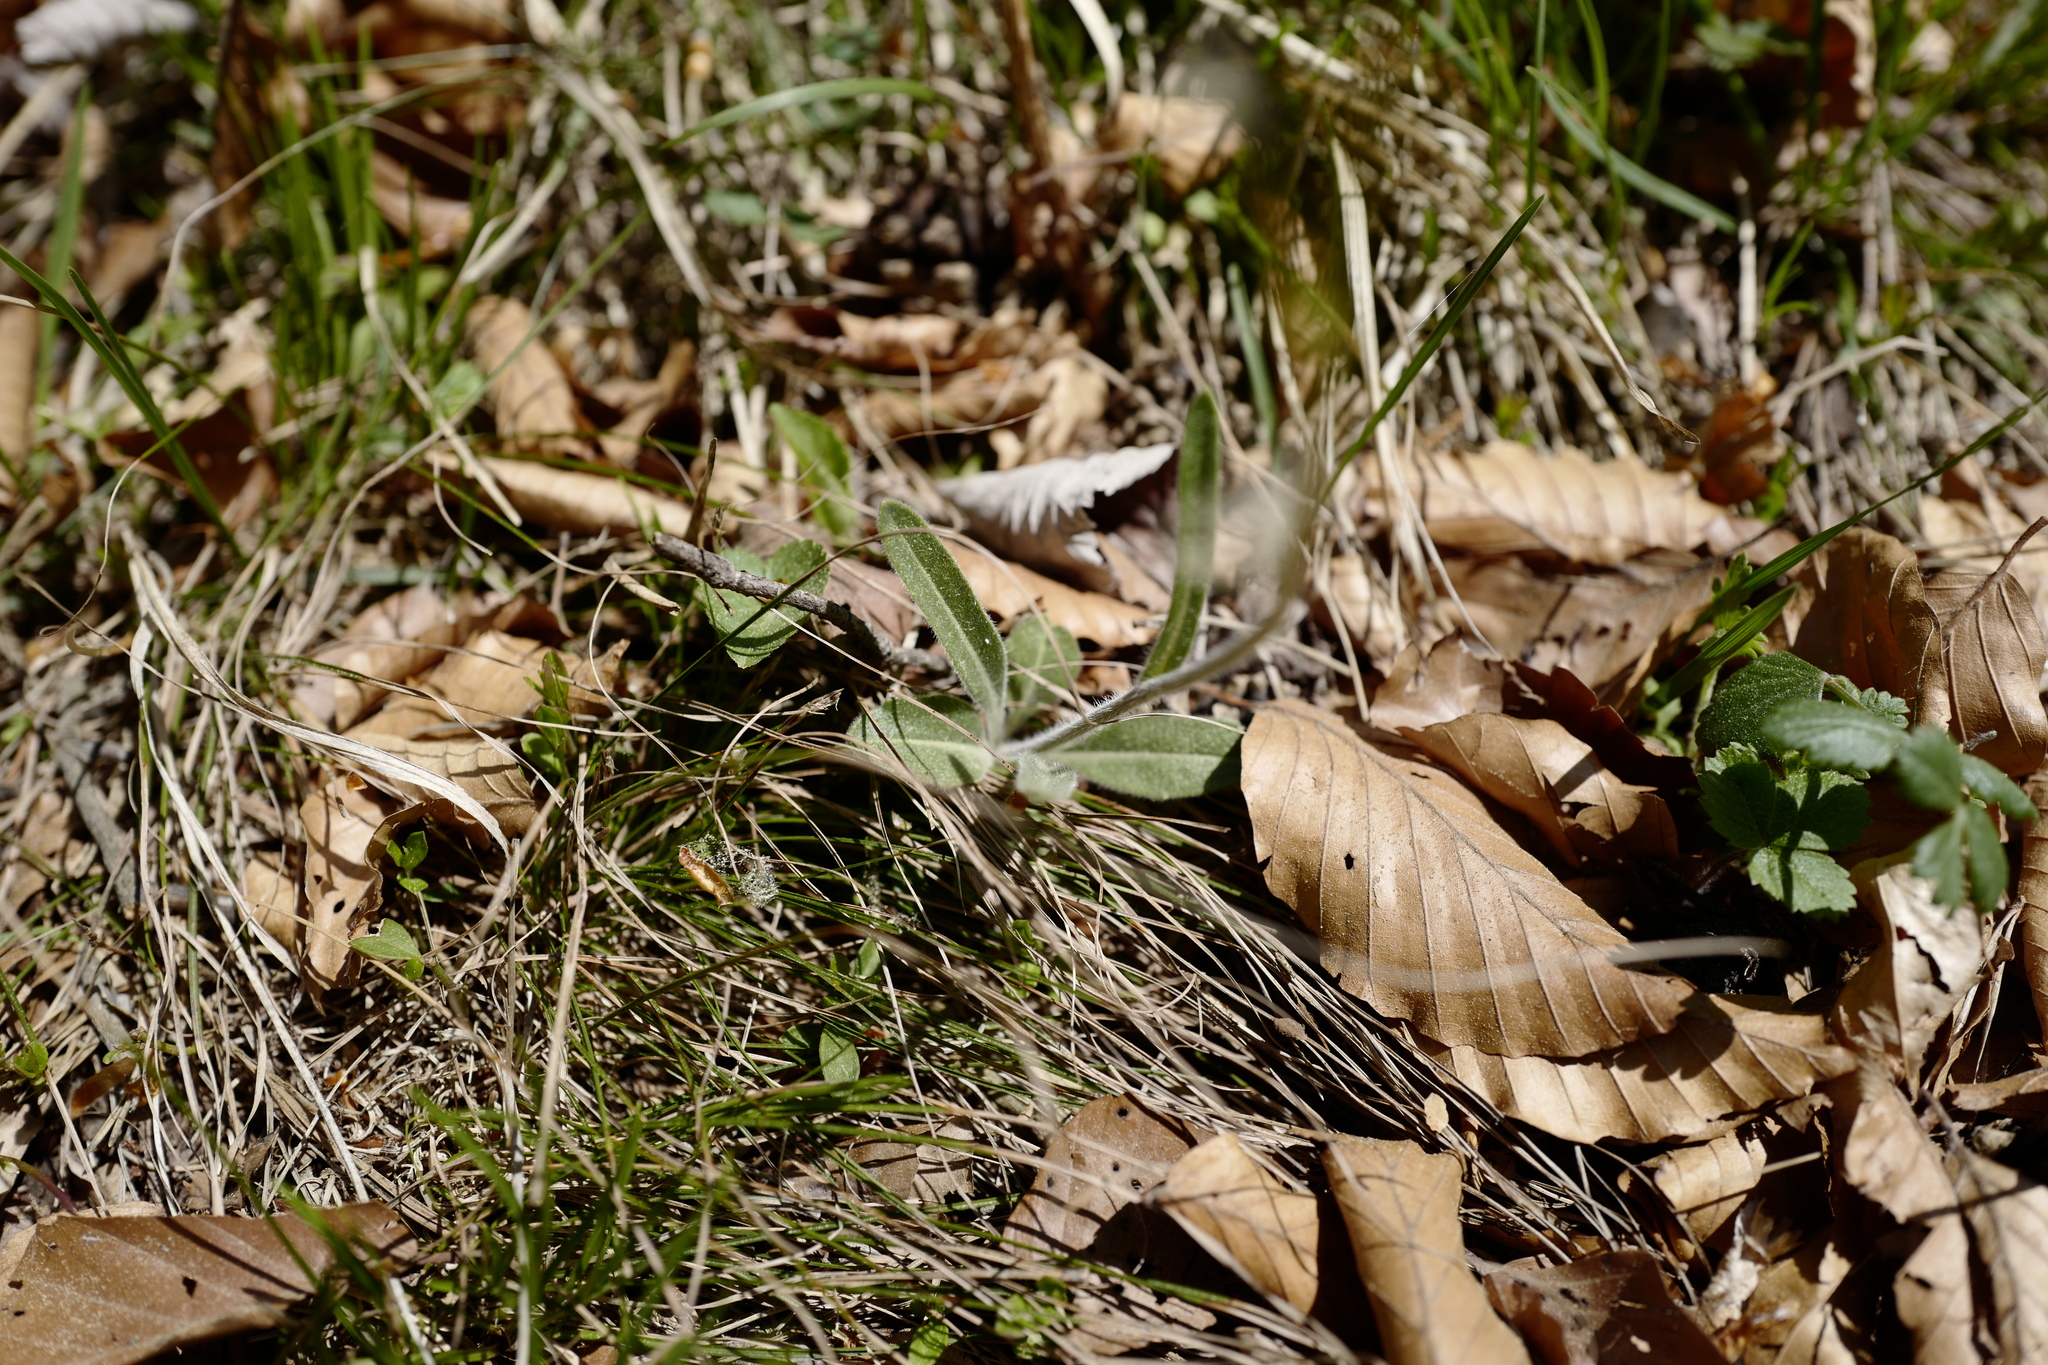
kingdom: Plantae
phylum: Tracheophyta
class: Magnoliopsida
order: Brassicales
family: Brassicaceae
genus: Biscutella
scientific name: Biscutella laevigata
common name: Buckler mustard
